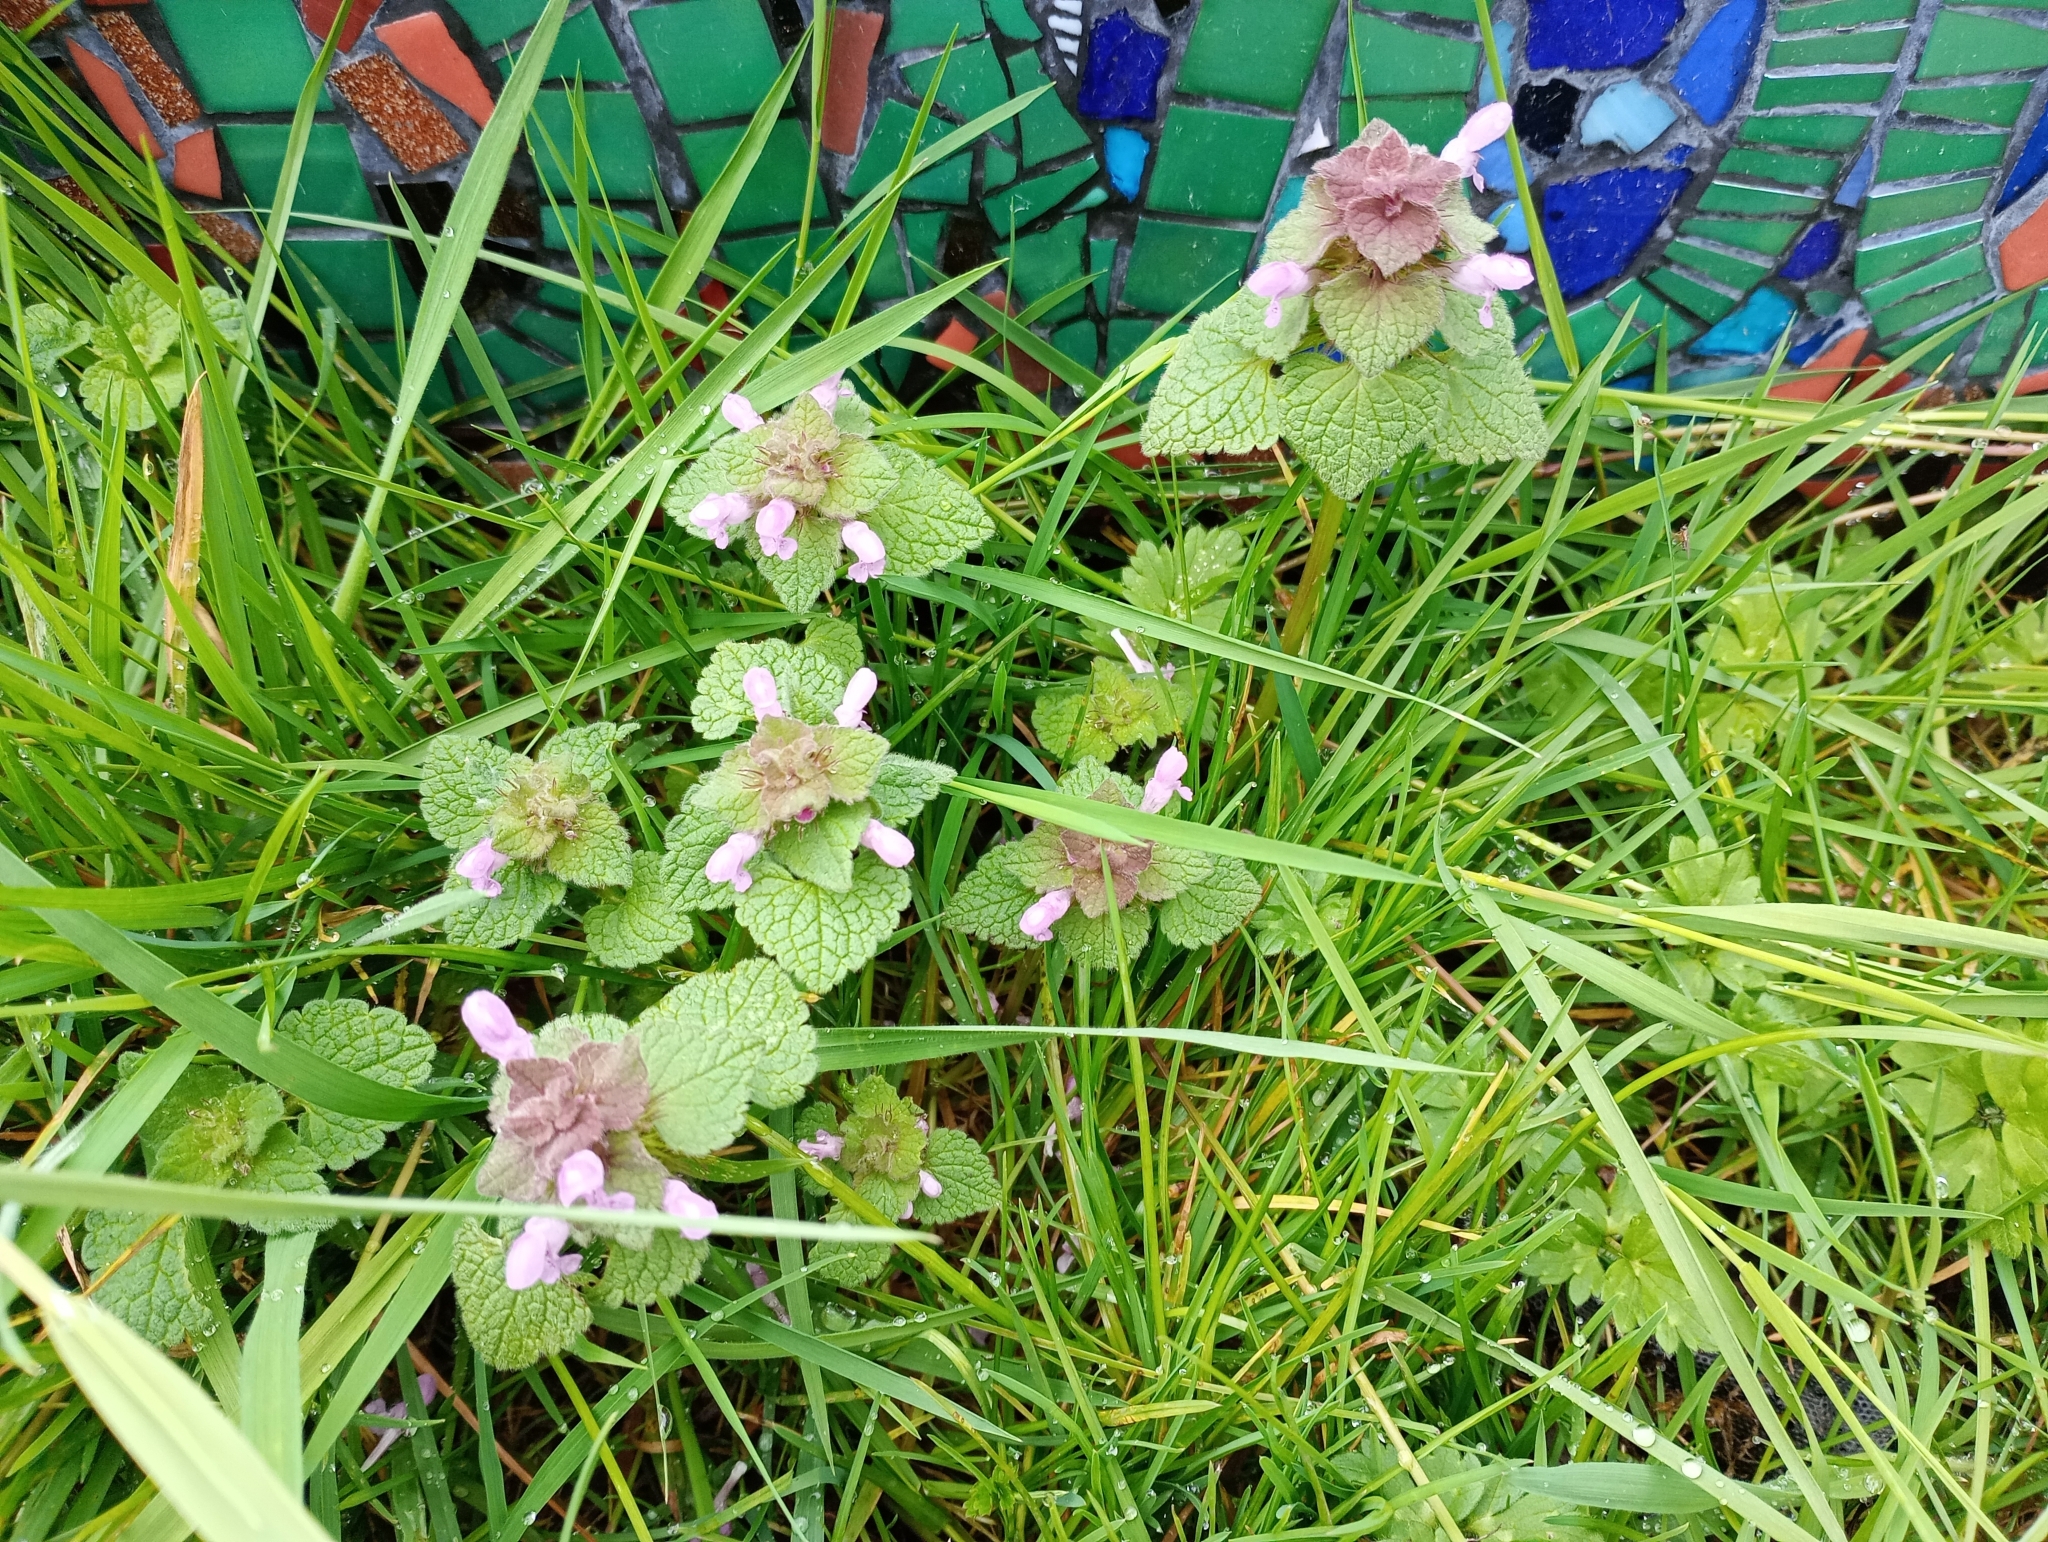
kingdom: Plantae
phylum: Tracheophyta
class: Magnoliopsida
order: Lamiales
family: Lamiaceae
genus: Lamium
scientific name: Lamium purpureum
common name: Red dead-nettle
